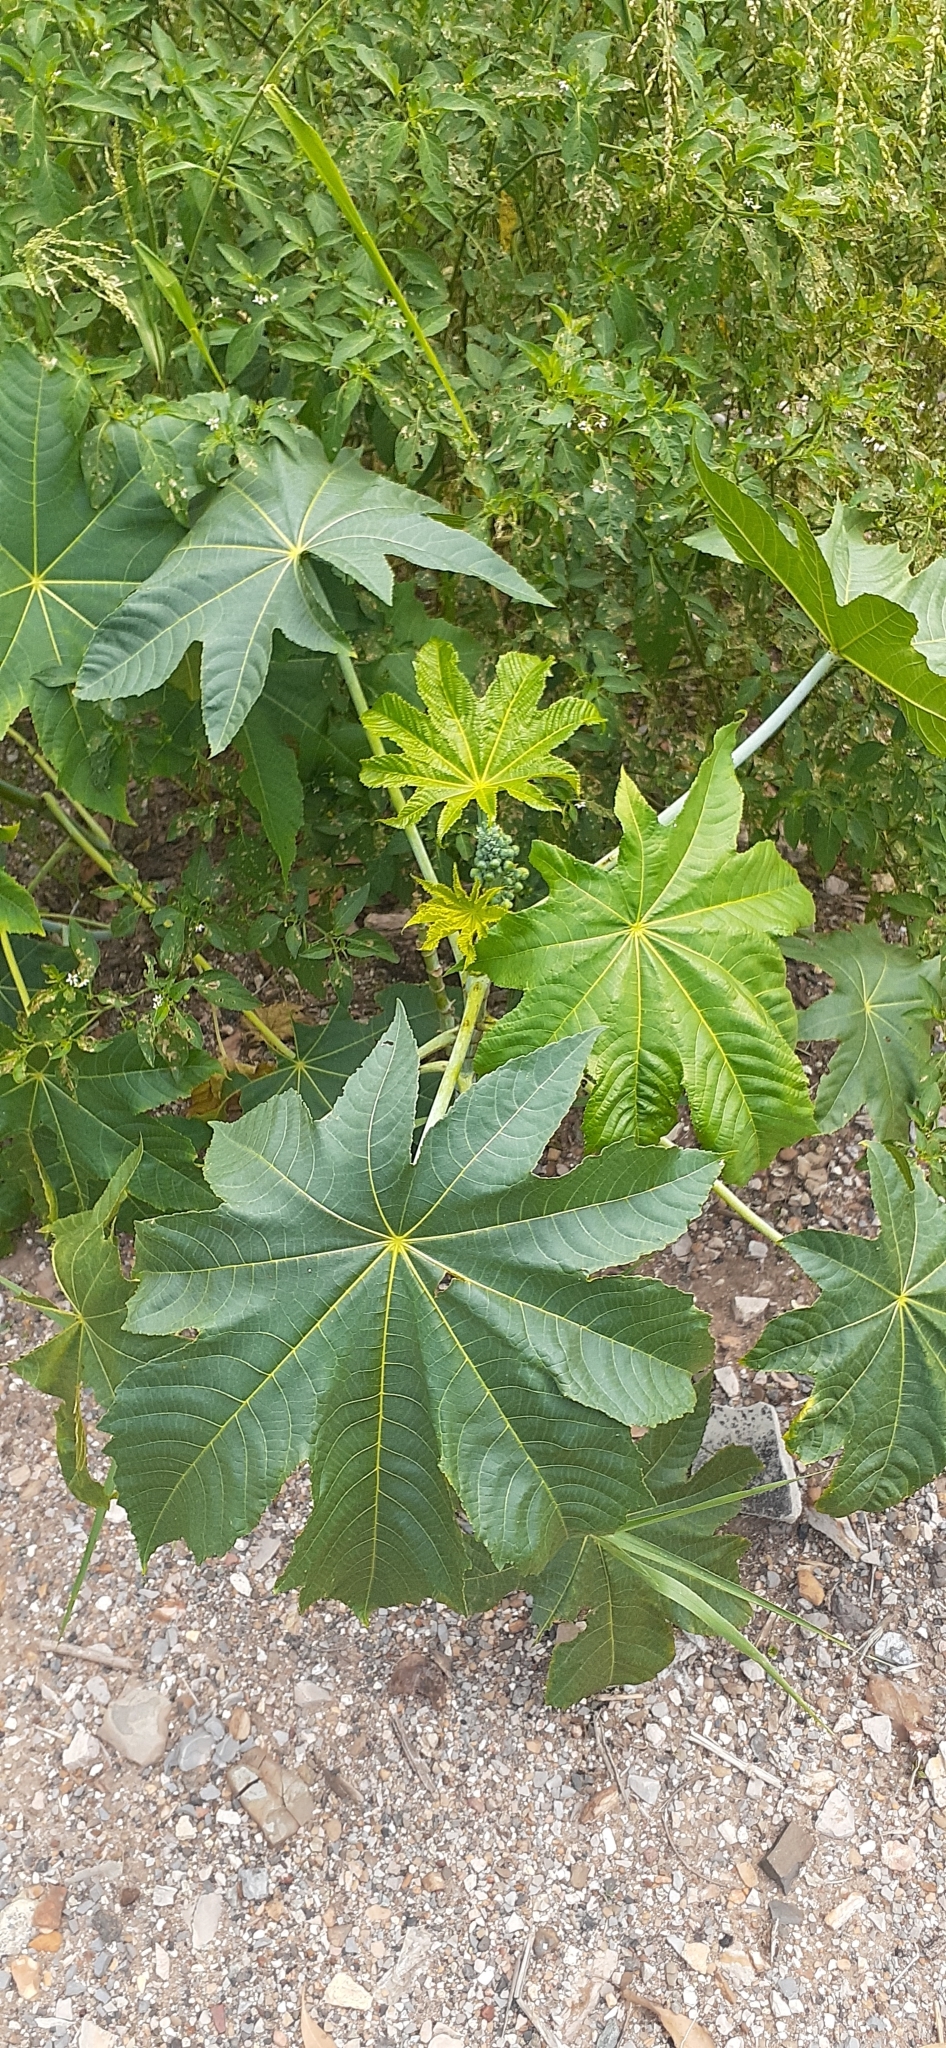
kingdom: Plantae
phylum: Tracheophyta
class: Magnoliopsida
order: Malpighiales
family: Euphorbiaceae
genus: Ricinus
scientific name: Ricinus communis
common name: Castor-oil-plant
